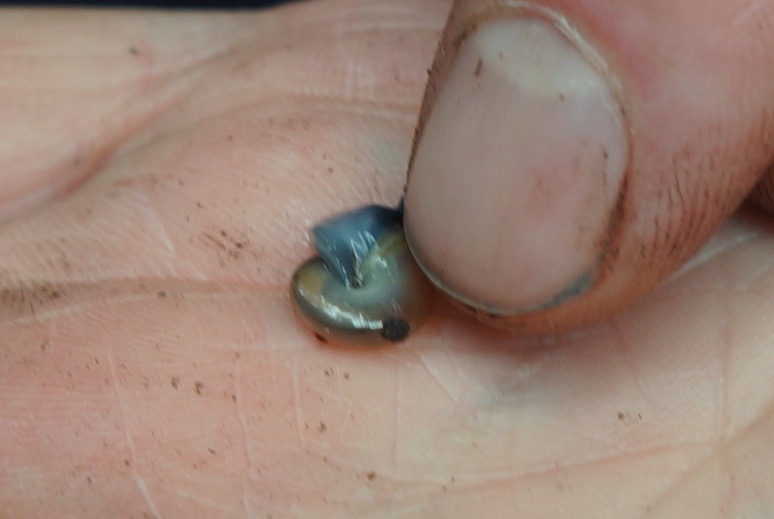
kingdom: Animalia
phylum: Mollusca
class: Gastropoda
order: Stylommatophora
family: Oxychilidae
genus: Oxychilus
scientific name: Oxychilus draparnaudi
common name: Draparnaud's glass snail
